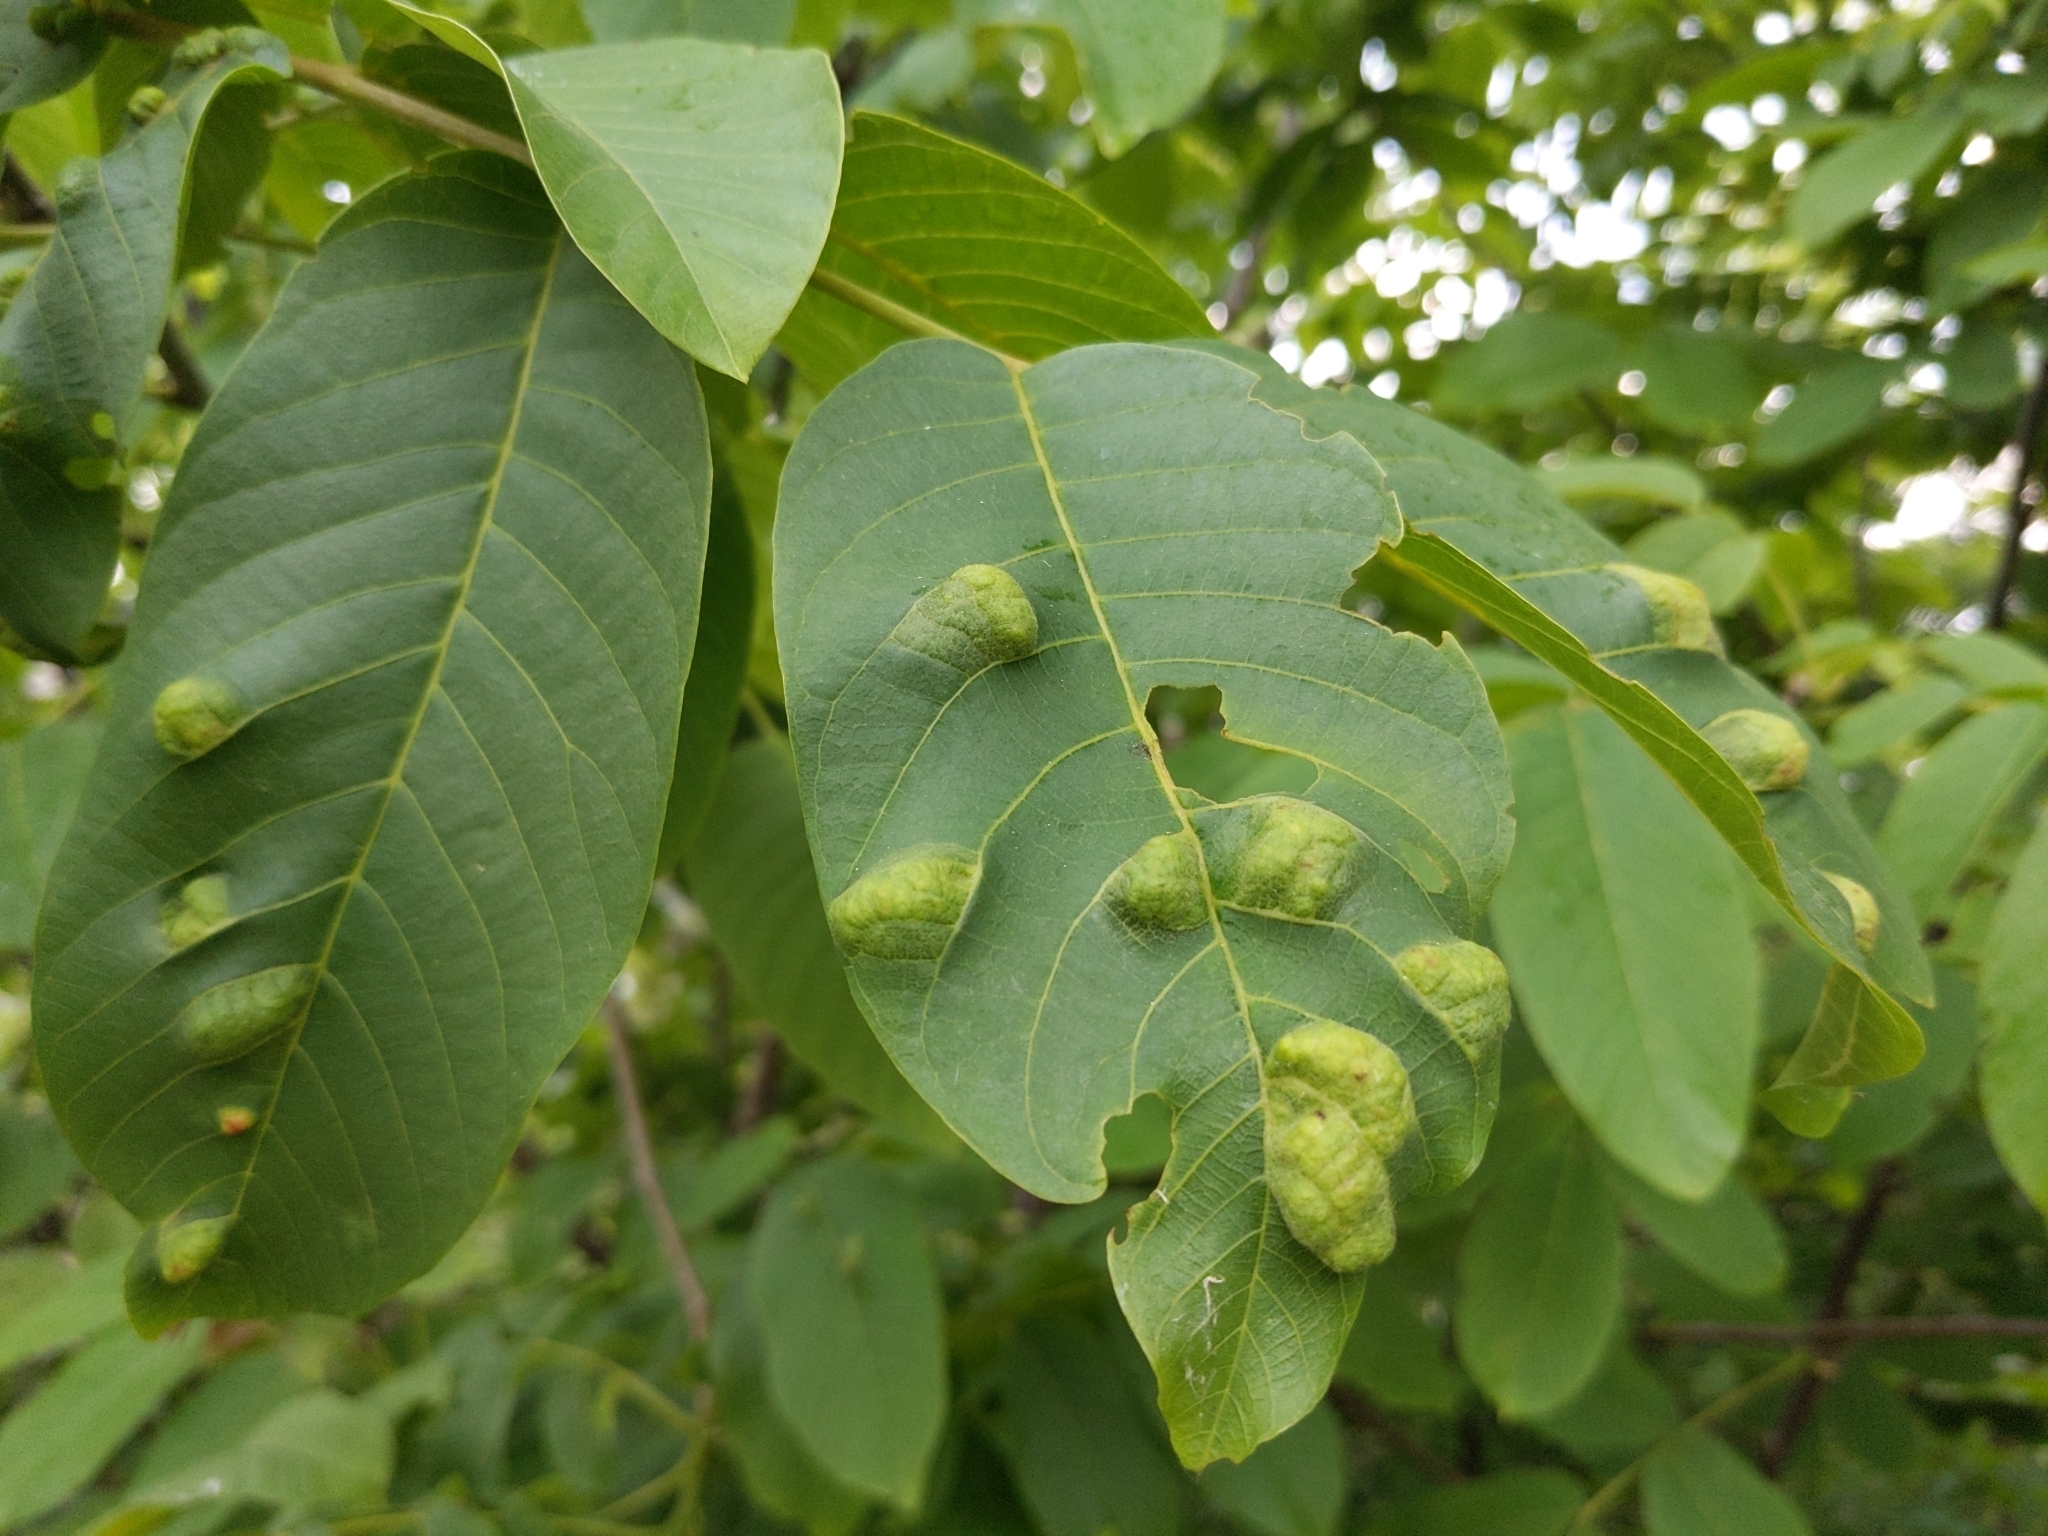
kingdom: Animalia
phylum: Arthropoda
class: Arachnida
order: Trombidiformes
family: Eriophyidae
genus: Aceria
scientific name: Aceria erinea
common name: Persian walnut erineum mite
